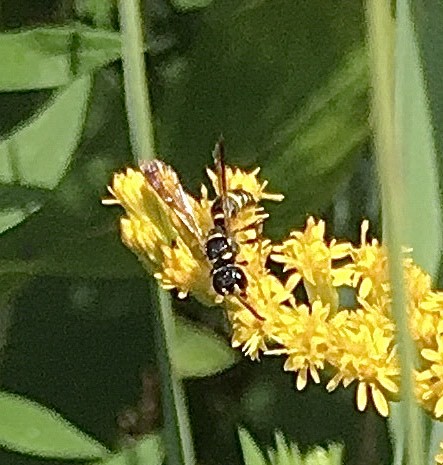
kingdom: Animalia
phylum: Arthropoda
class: Insecta
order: Hymenoptera
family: Crabronidae
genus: Cerceris
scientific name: Cerceris
